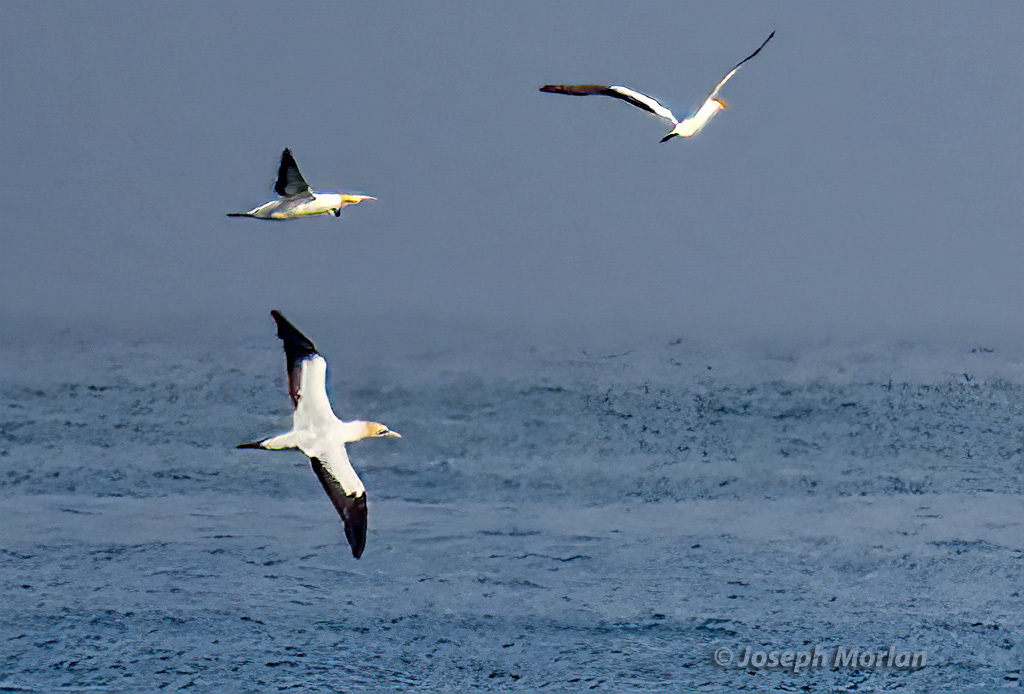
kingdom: Animalia
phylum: Chordata
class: Aves
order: Suliformes
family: Sulidae
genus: Morus
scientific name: Morus capensis
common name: Cape gannet
